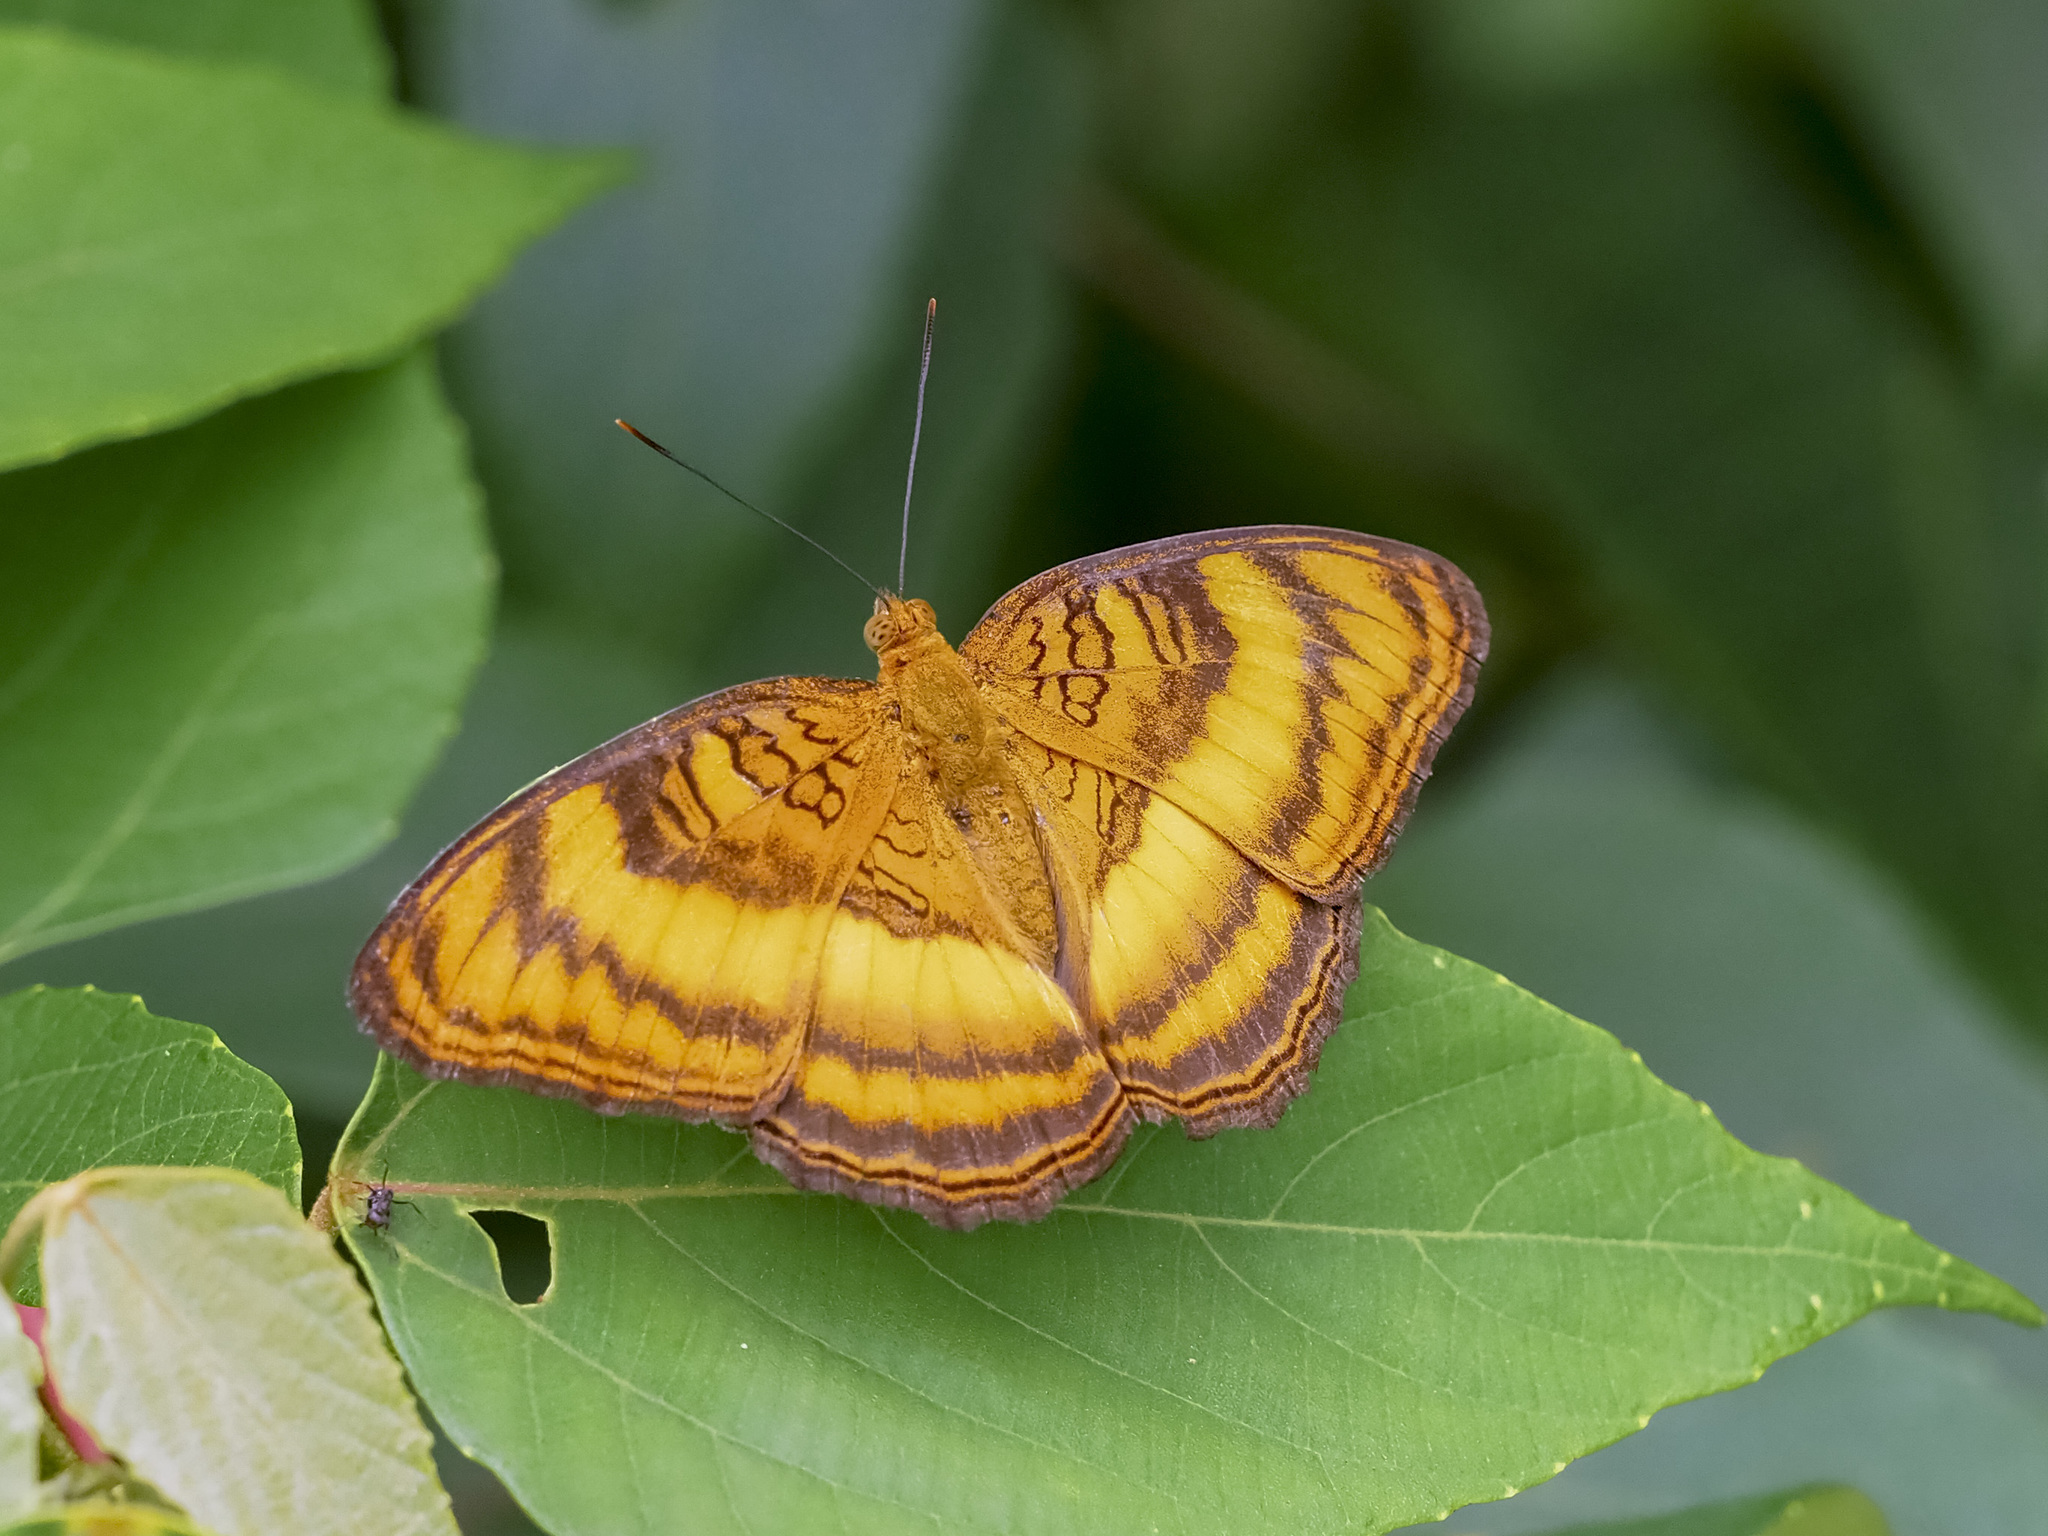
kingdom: Animalia
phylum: Arthropoda
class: Insecta
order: Lepidoptera
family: Nymphalidae
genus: Pandita
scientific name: Pandita sinope
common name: Colonel
